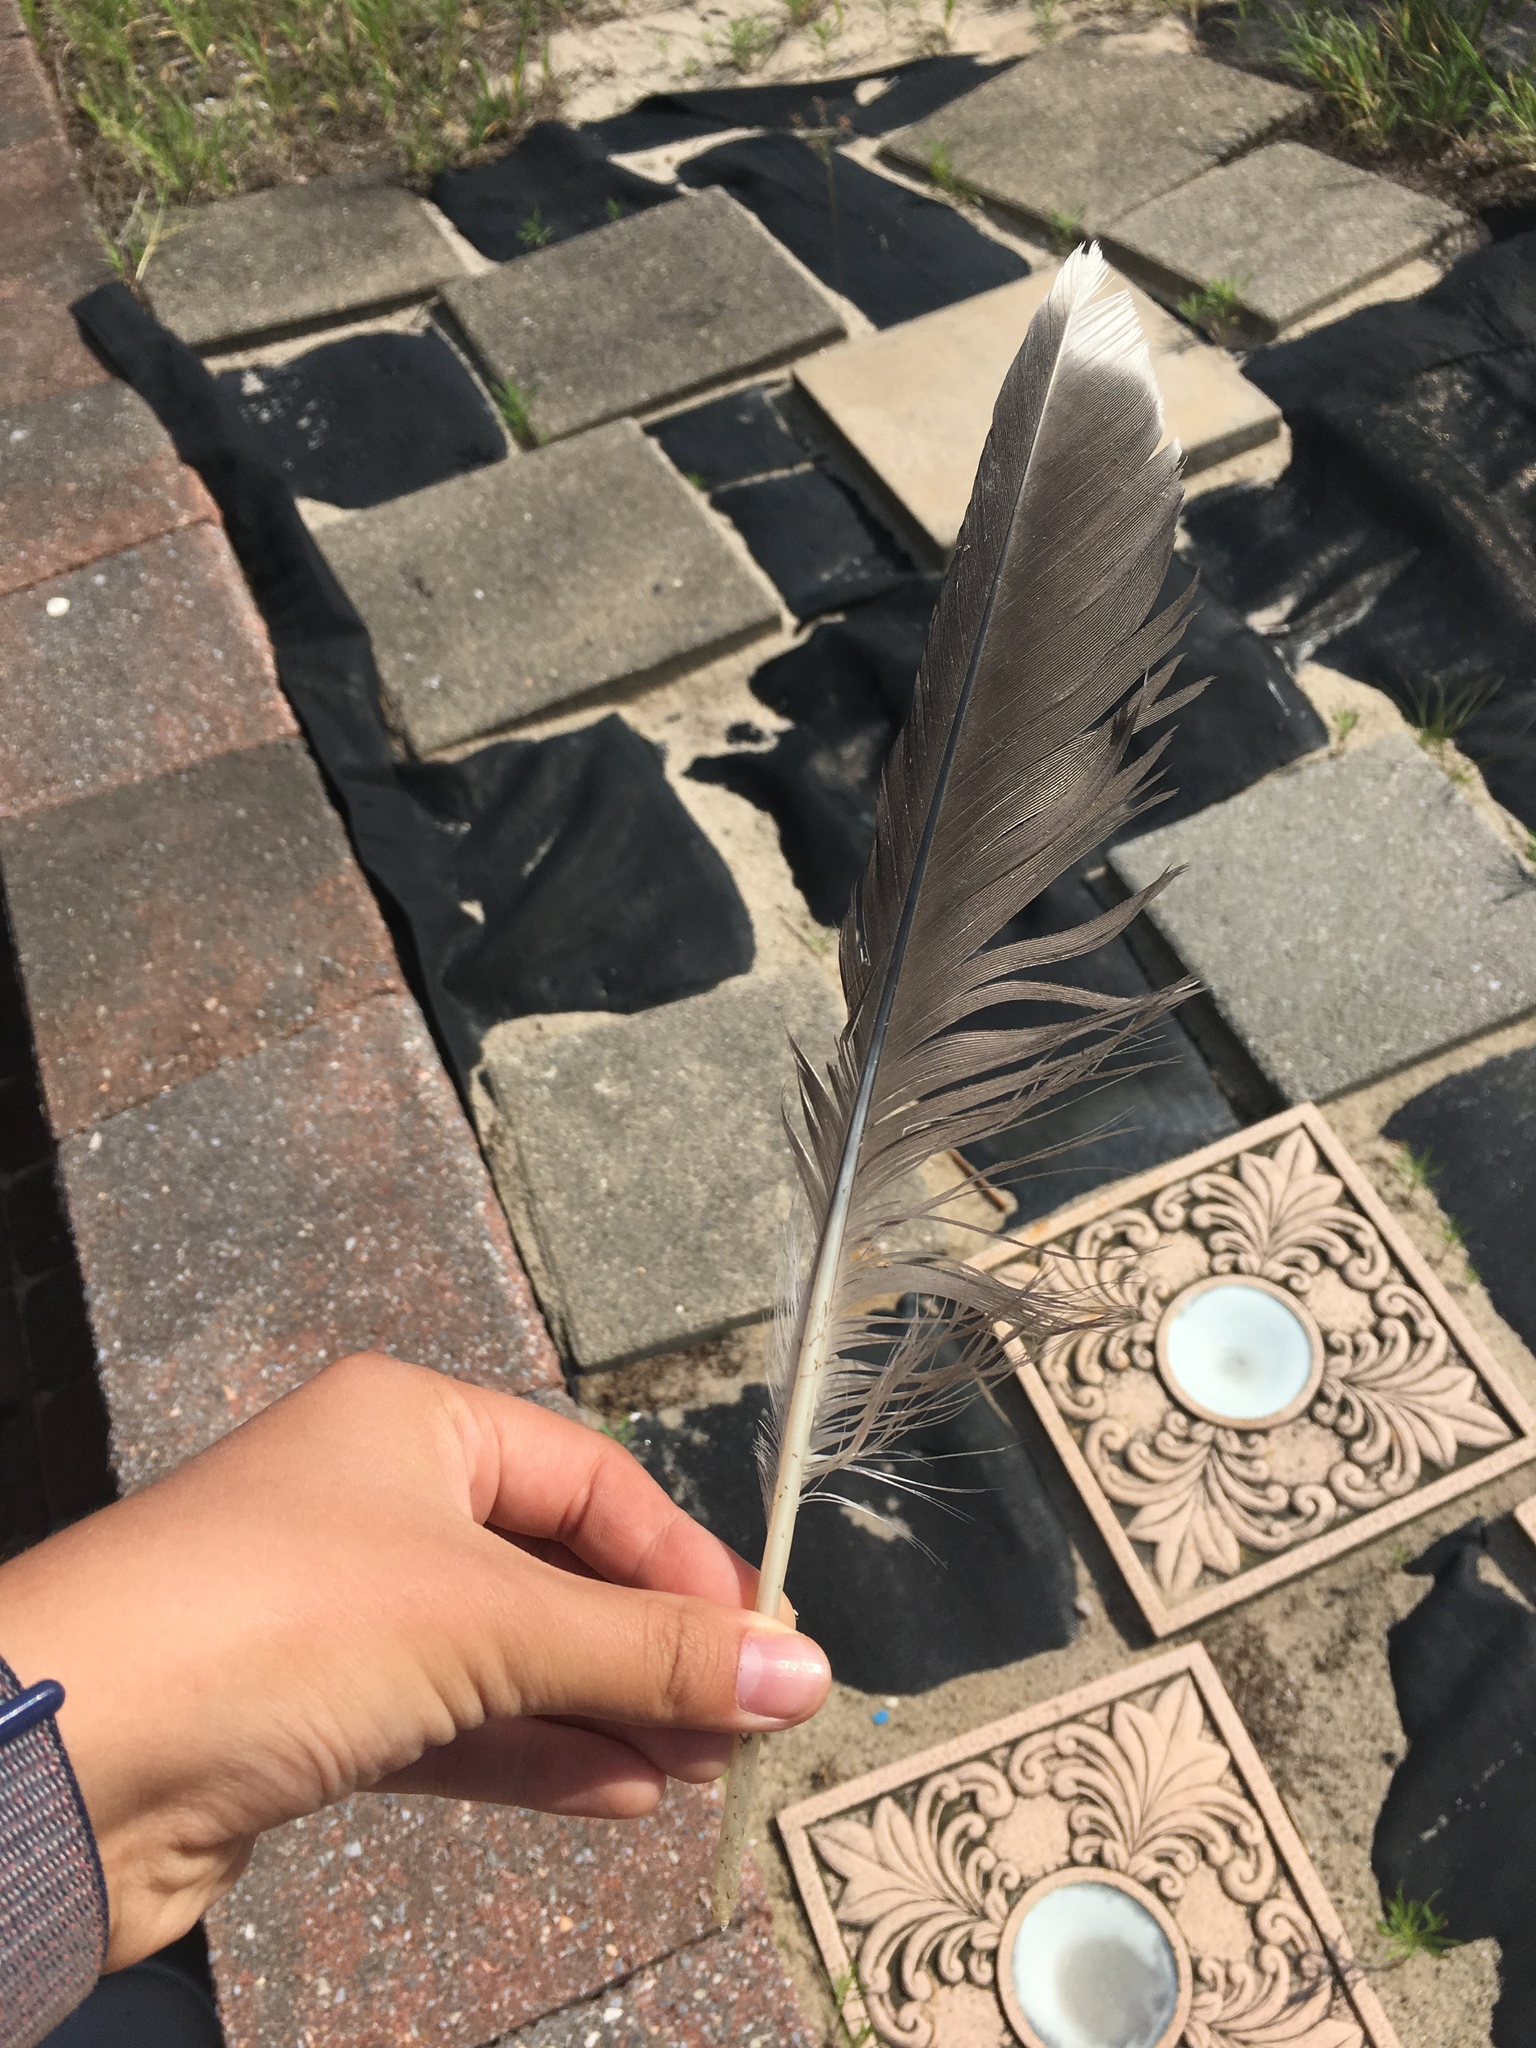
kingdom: Animalia
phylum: Chordata
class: Aves
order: Charadriiformes
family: Laridae
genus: Larus
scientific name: Larus marinus
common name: Great black-backed gull
